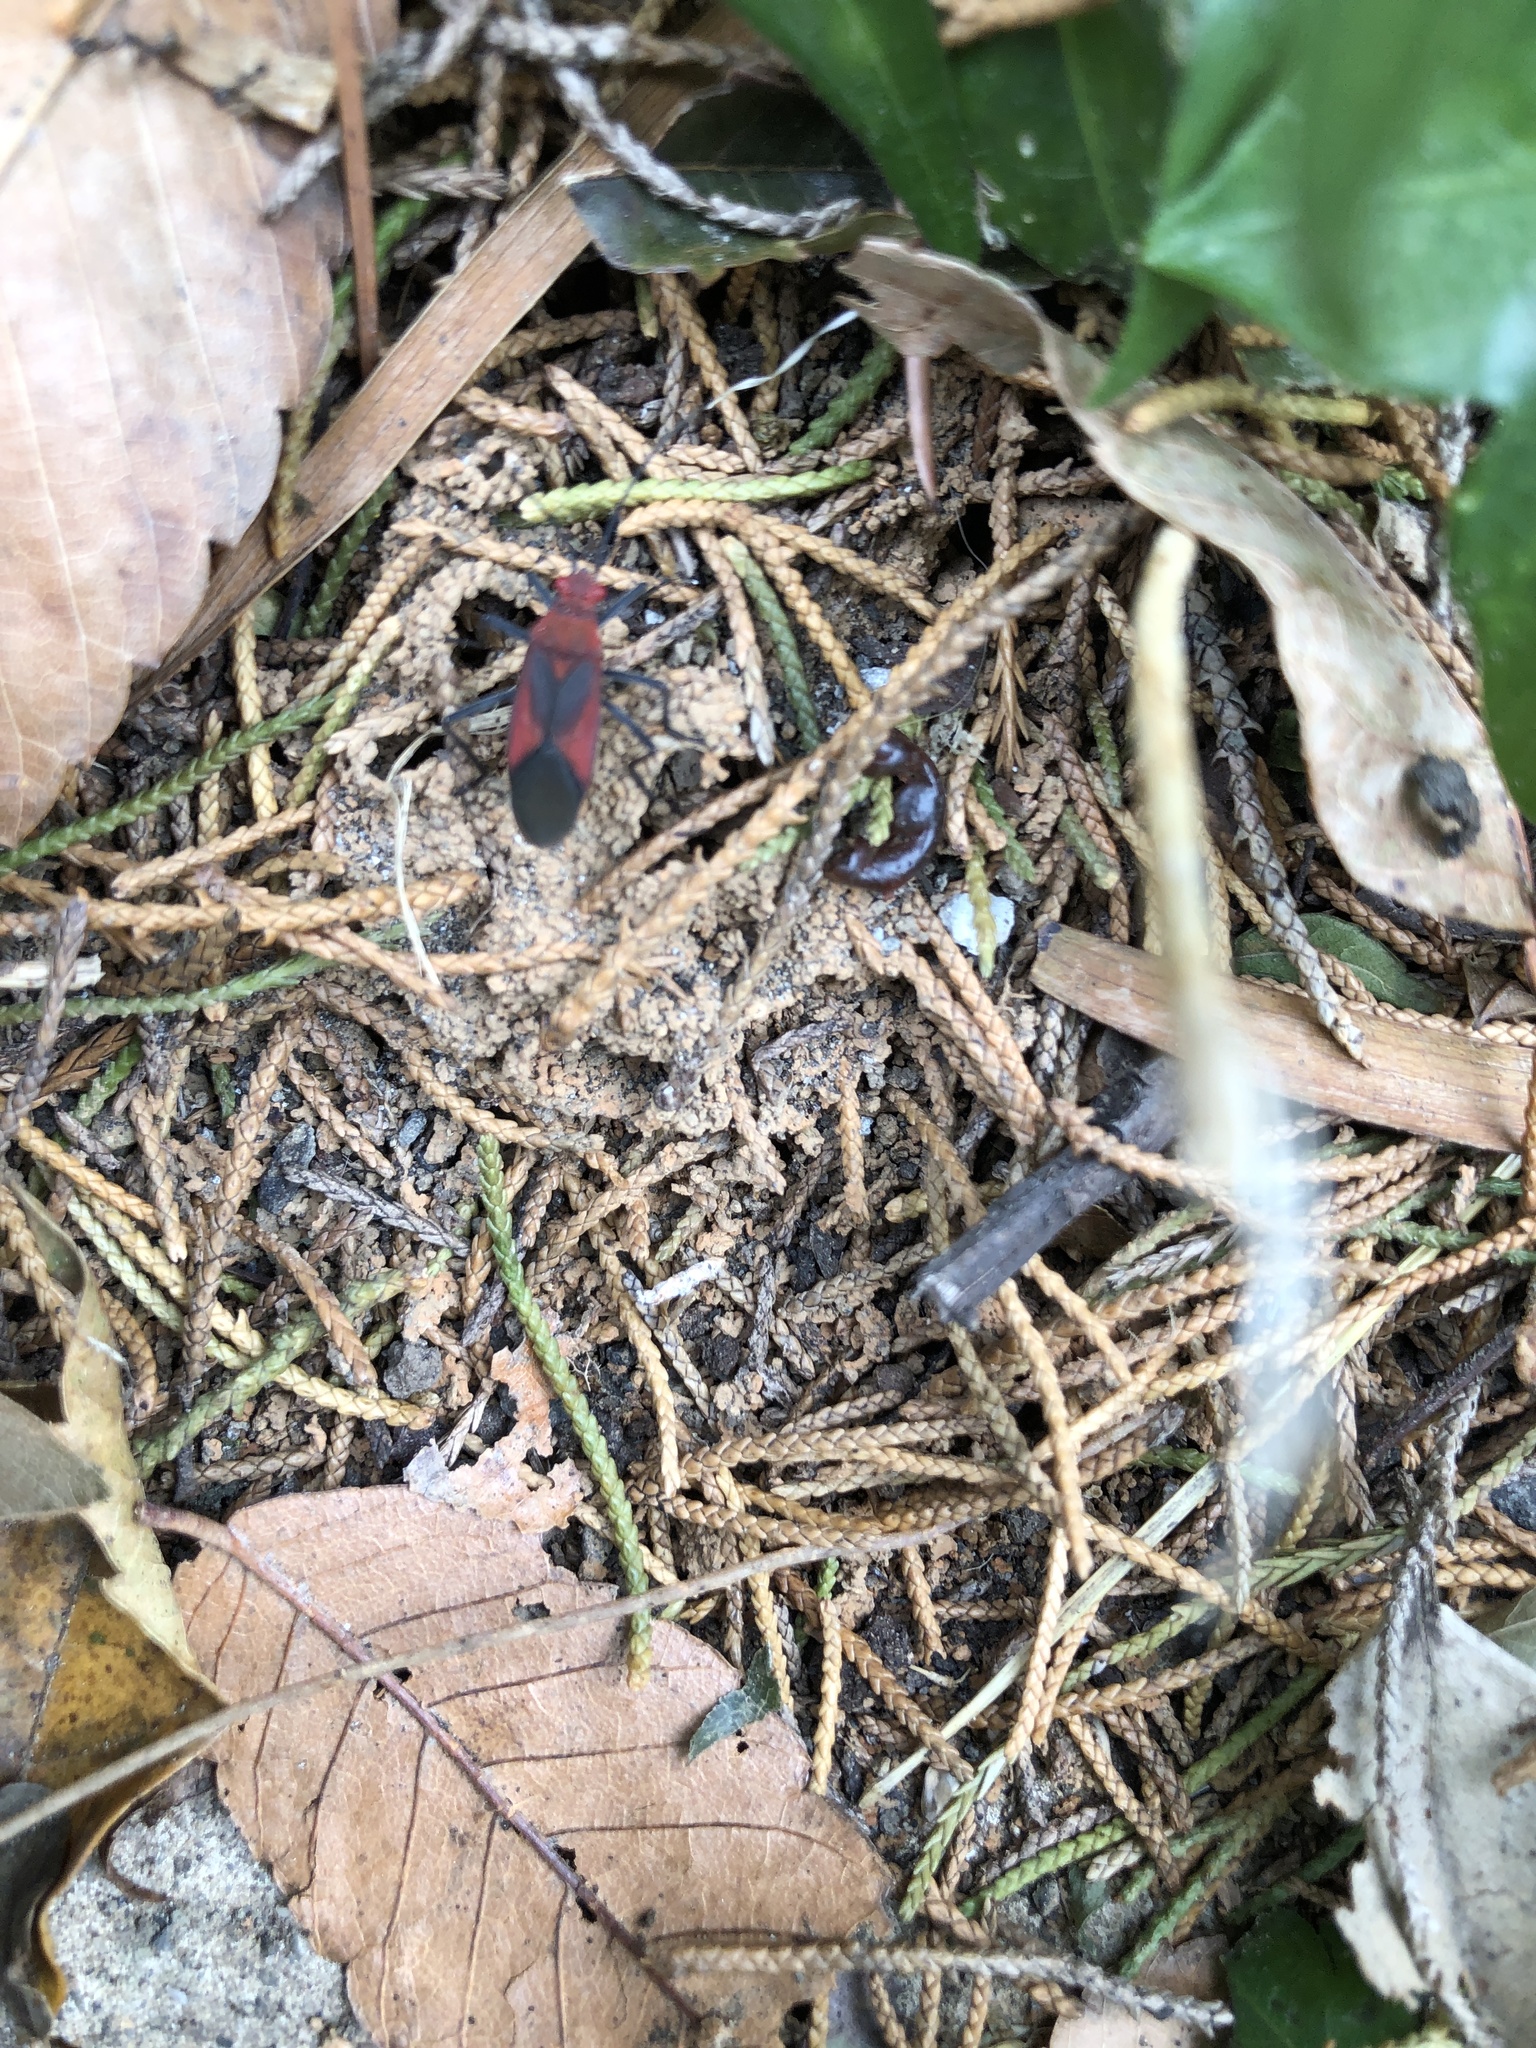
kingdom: Animalia
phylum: Arthropoda
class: Insecta
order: Hemiptera
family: Rhopalidae
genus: Leptocoris
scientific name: Leptocoris vicinus
